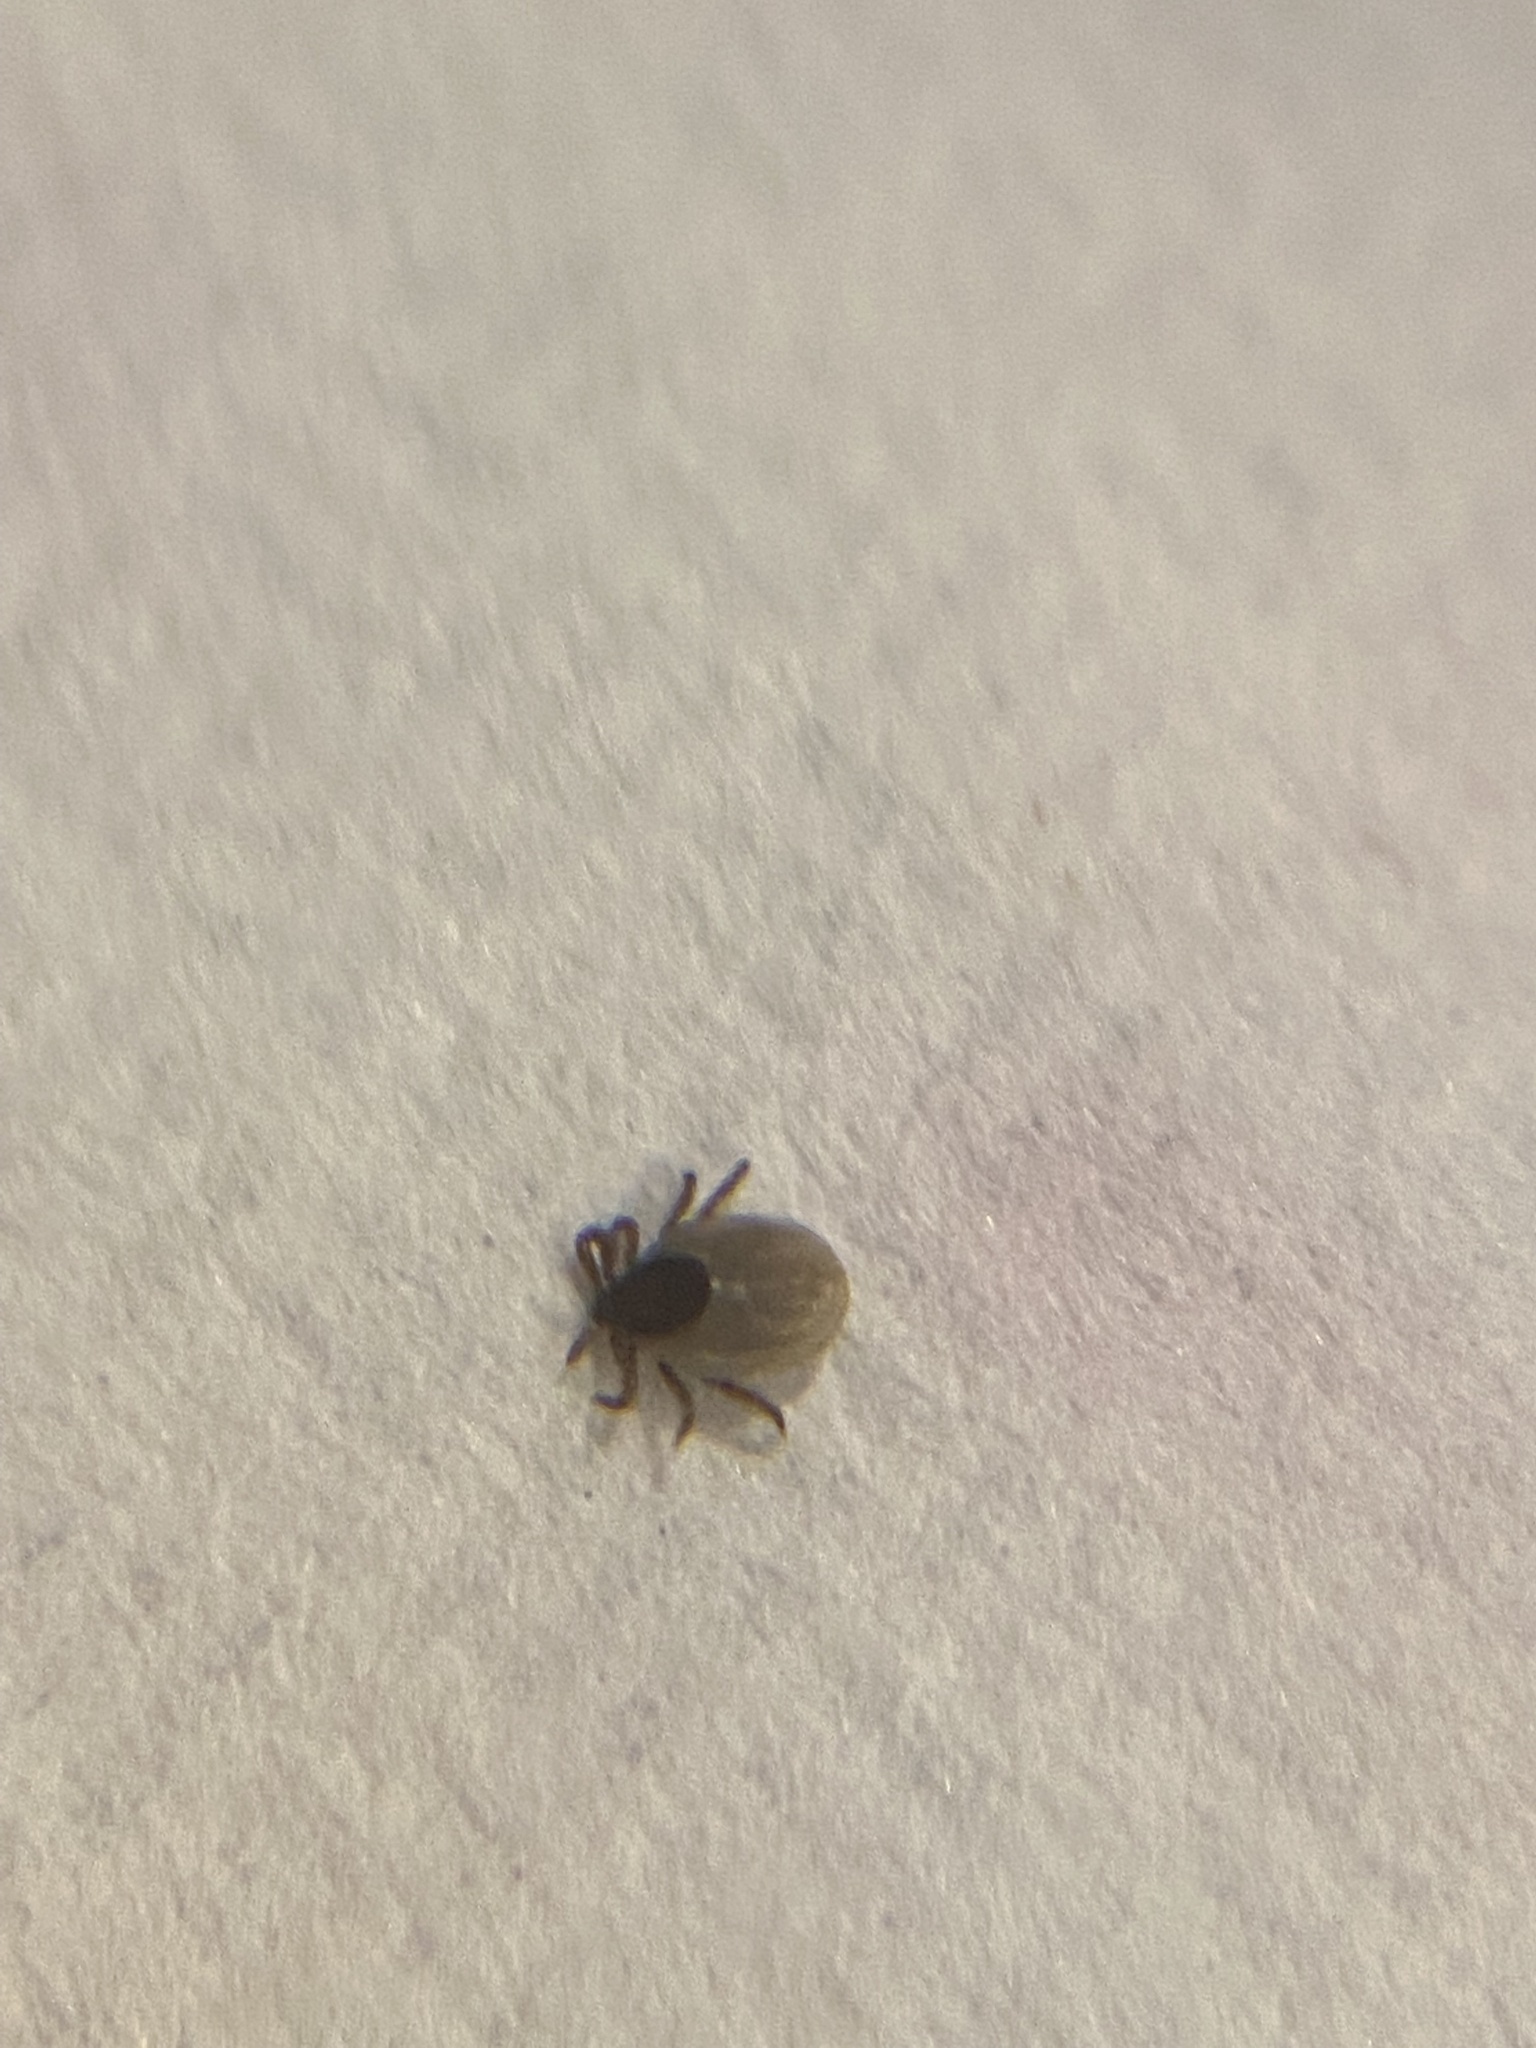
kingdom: Animalia
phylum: Arthropoda
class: Arachnida
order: Ixodida
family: Ixodidae
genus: Ixodes
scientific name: Ixodes scapularis
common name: Black legged tick
